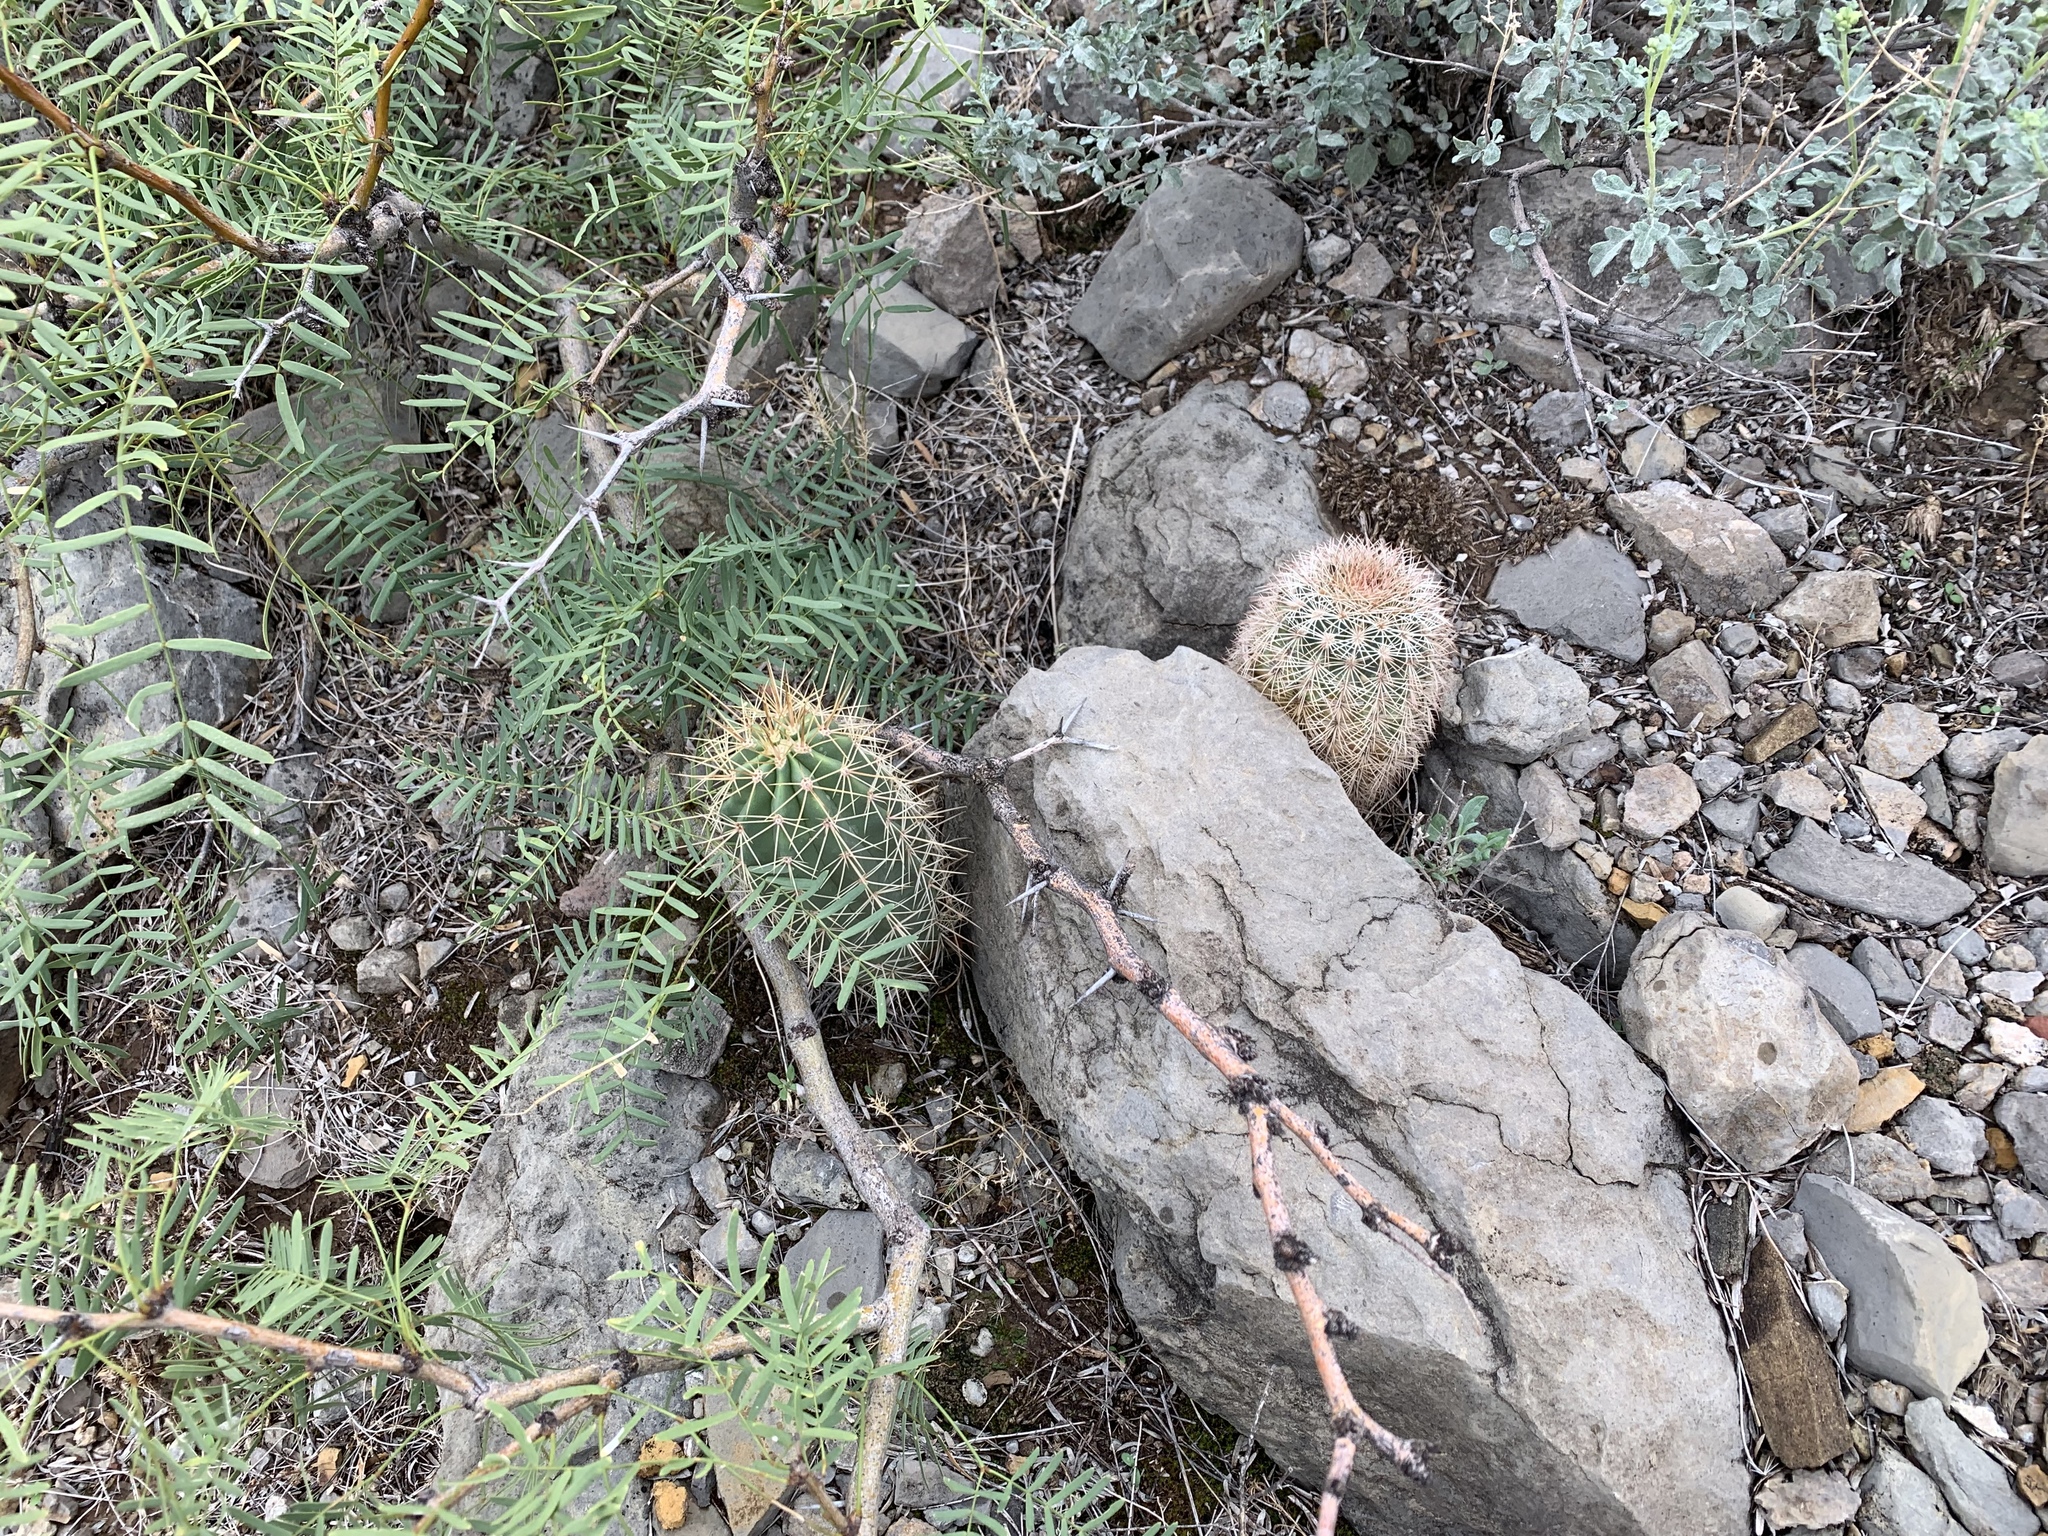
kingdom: Plantae
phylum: Tracheophyta
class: Magnoliopsida
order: Caryophyllales
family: Cactaceae
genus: Echinocereus
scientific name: Echinocereus coccineus
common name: Scarlet hedgehog cactus
